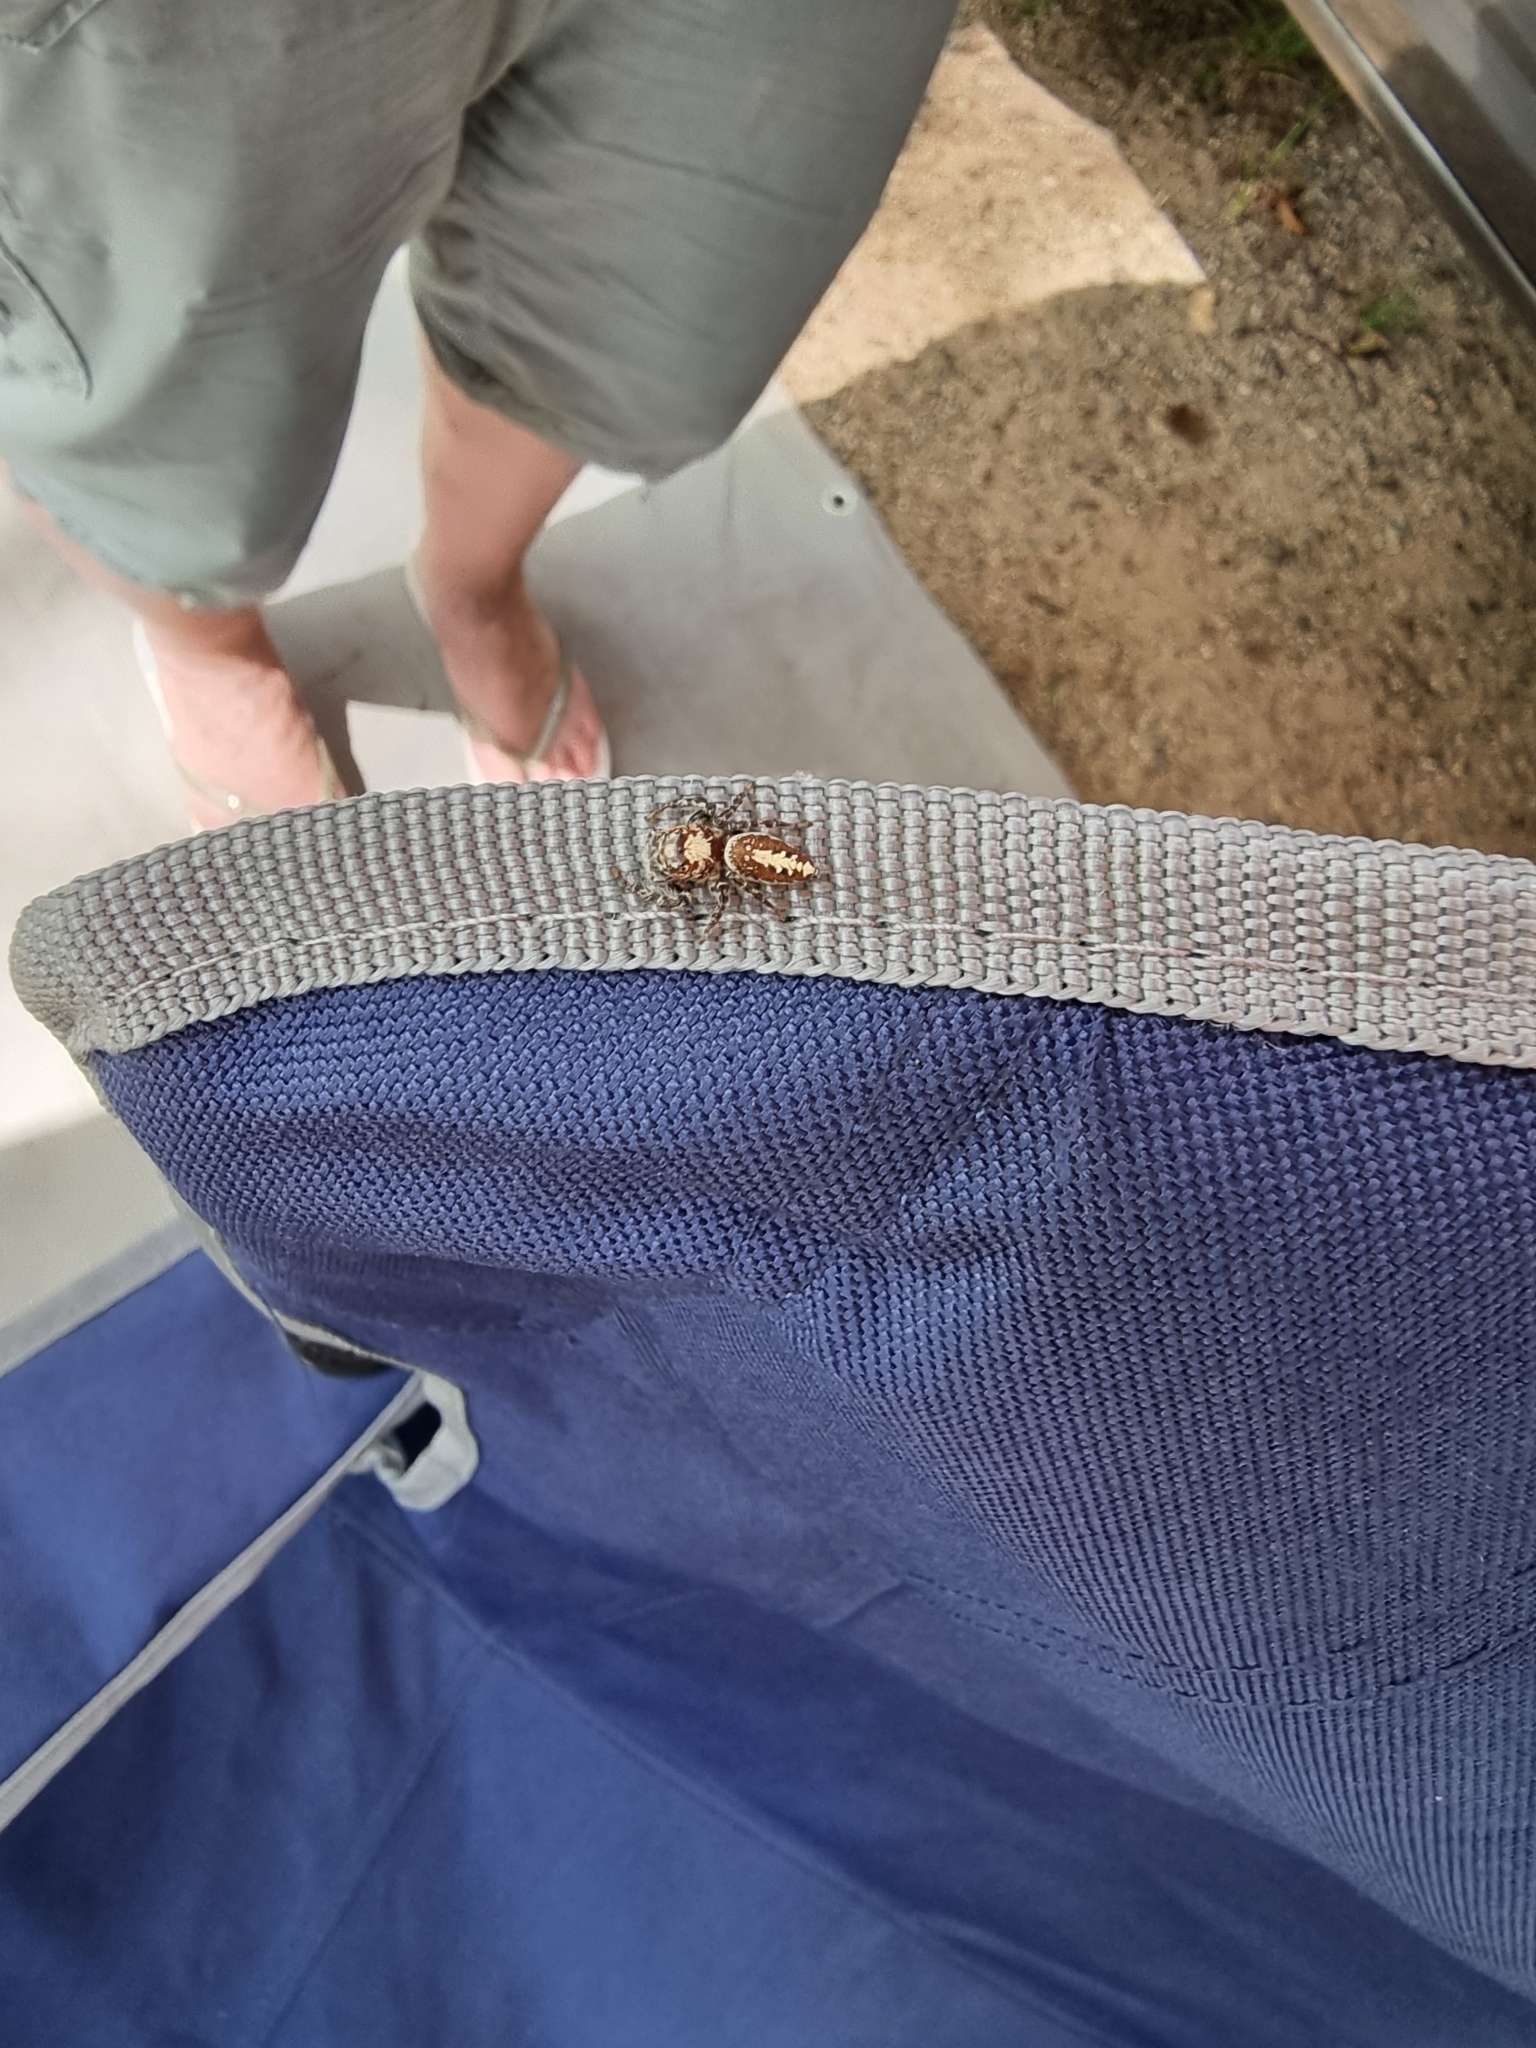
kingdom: Animalia
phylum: Arthropoda
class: Arachnida
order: Araneae
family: Salticidae
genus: Opisthoncus
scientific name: Opisthoncus nigrofemoratus
